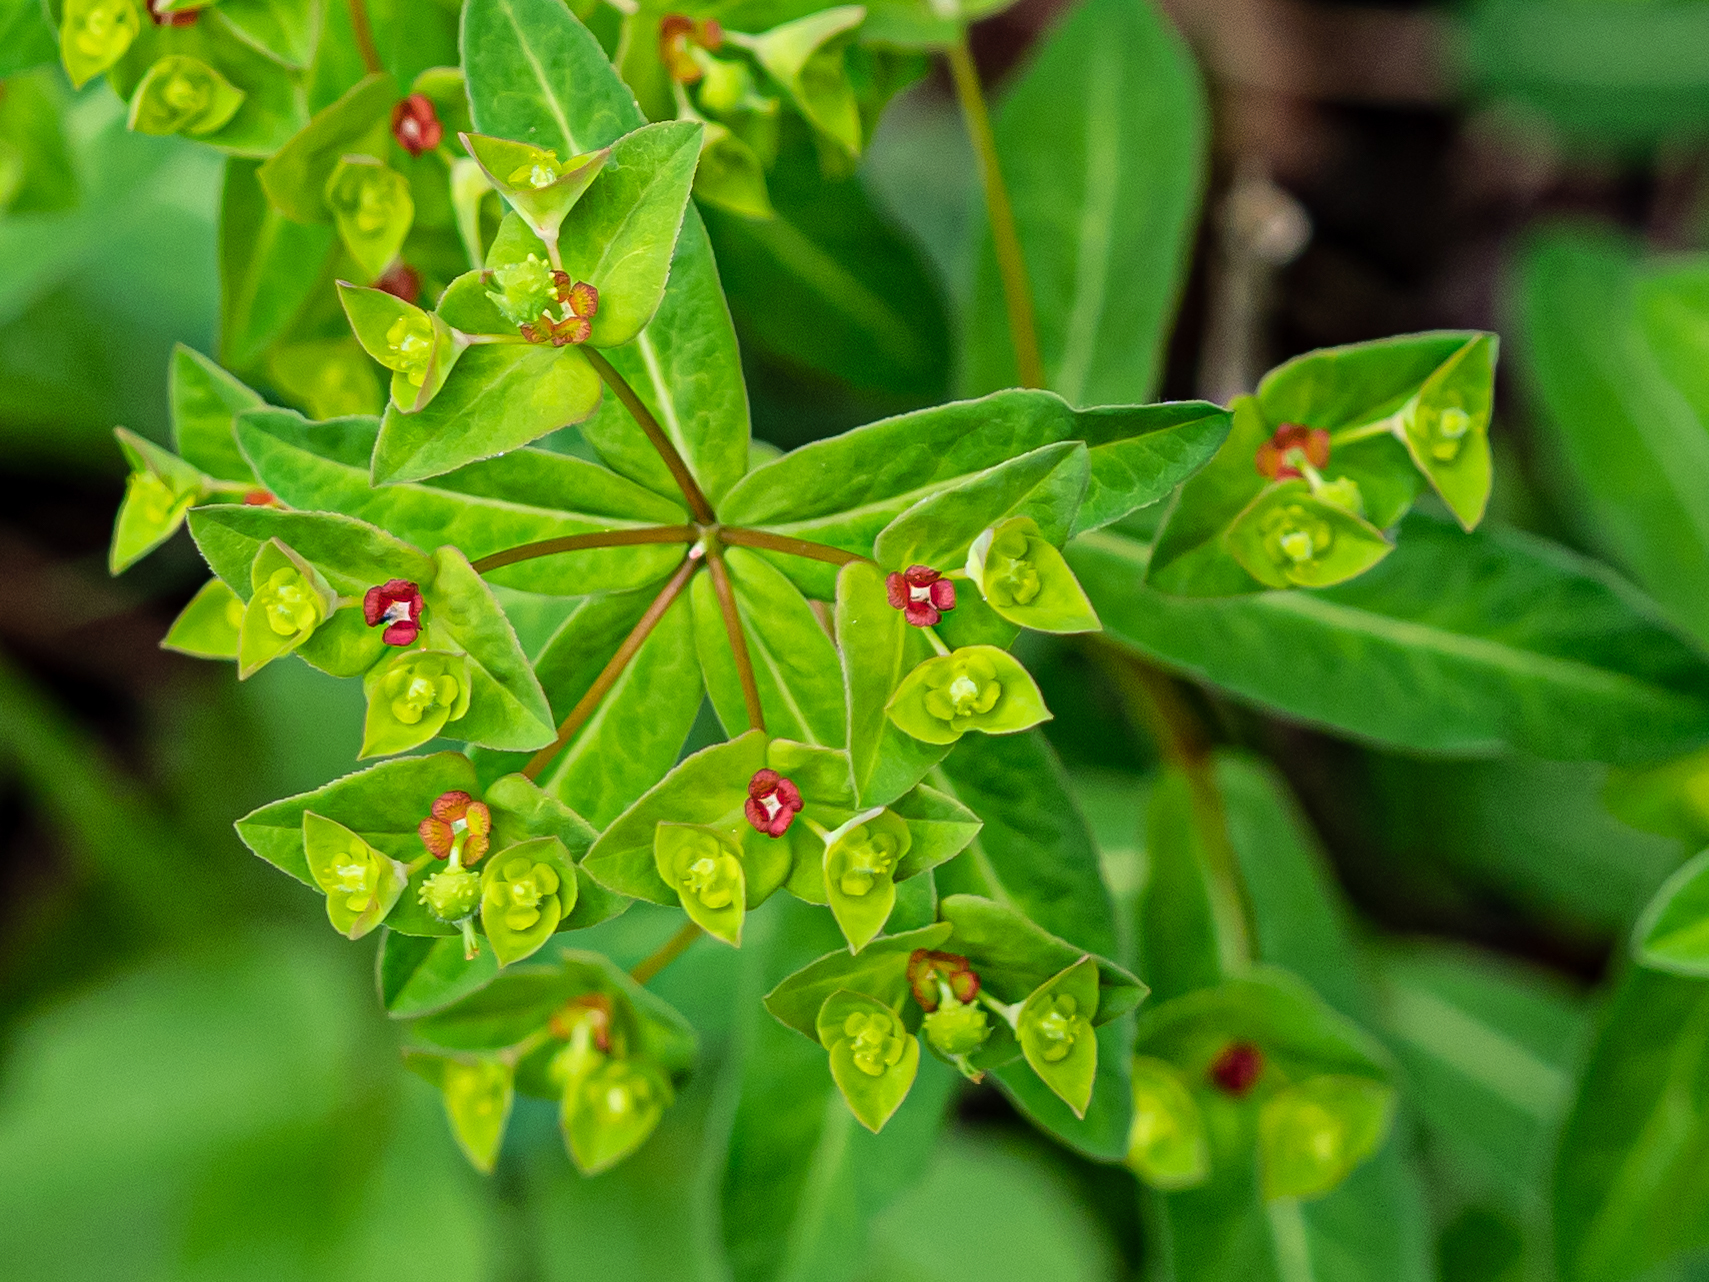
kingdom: Plantae
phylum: Tracheophyta
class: Magnoliopsida
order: Malpighiales
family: Euphorbiaceae
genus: Euphorbia
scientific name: Euphorbia dulcis
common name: Sweet spurge
